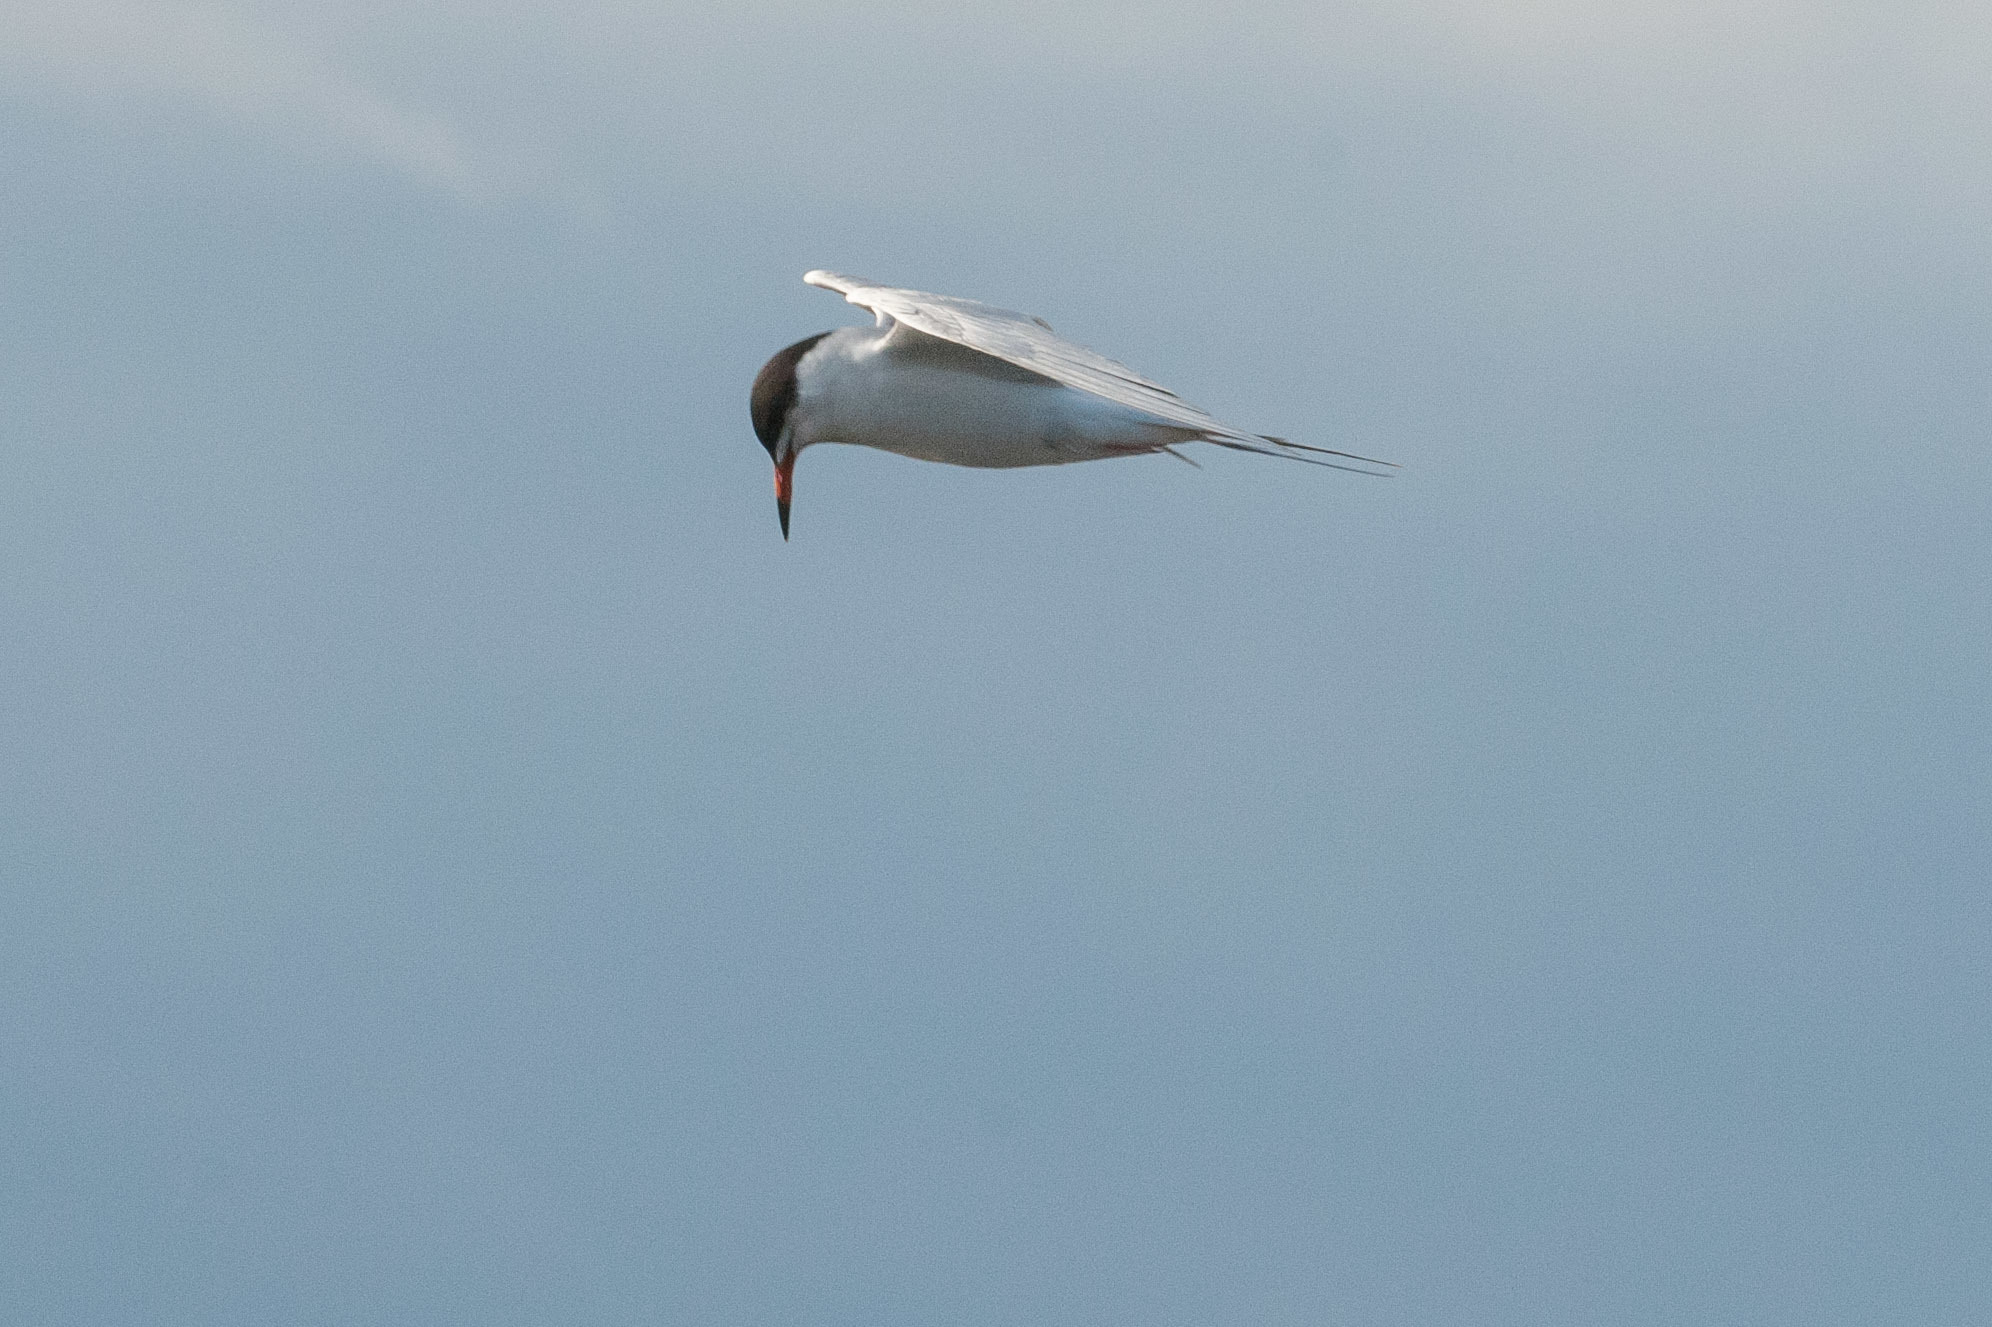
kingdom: Animalia
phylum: Chordata
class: Aves
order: Charadriiformes
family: Laridae
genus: Sterna
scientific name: Sterna forsteri
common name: Forster's tern
